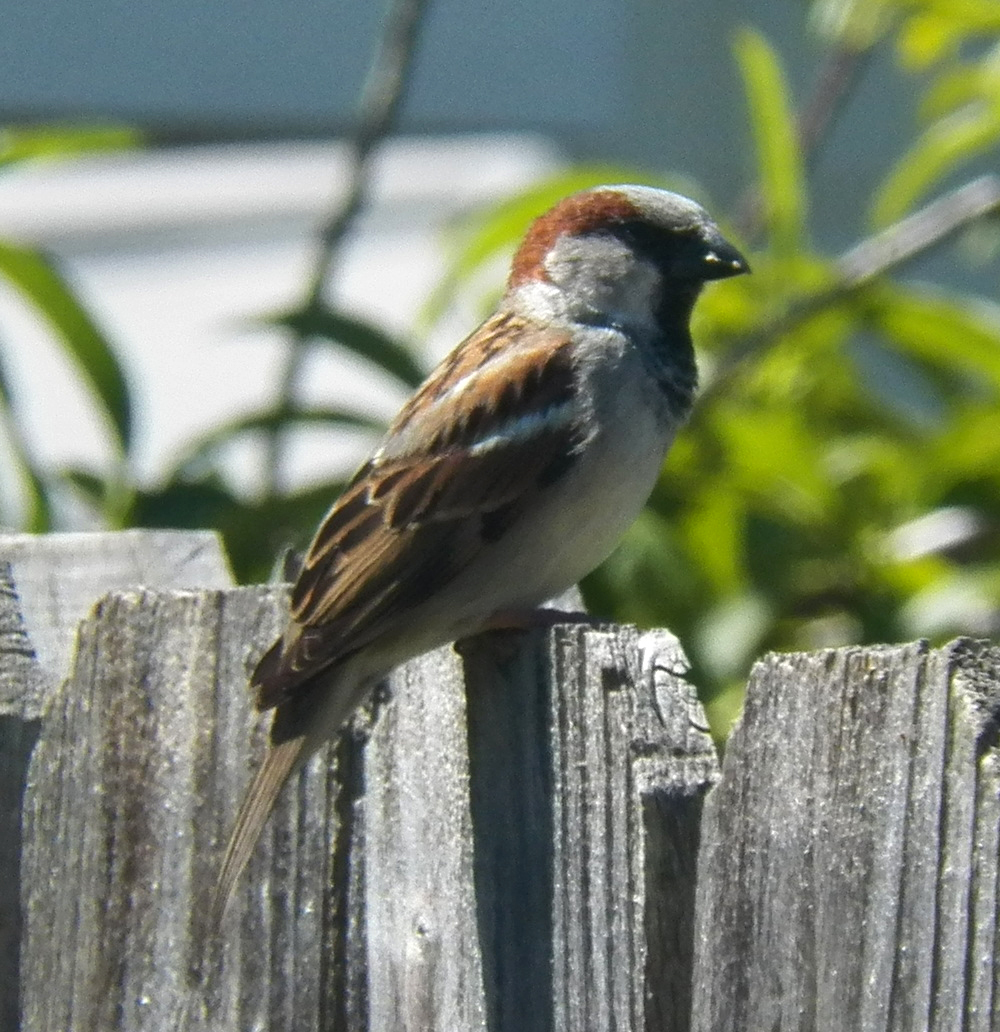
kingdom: Animalia
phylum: Chordata
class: Aves
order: Passeriformes
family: Passeridae
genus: Passer
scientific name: Passer domesticus
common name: House sparrow
